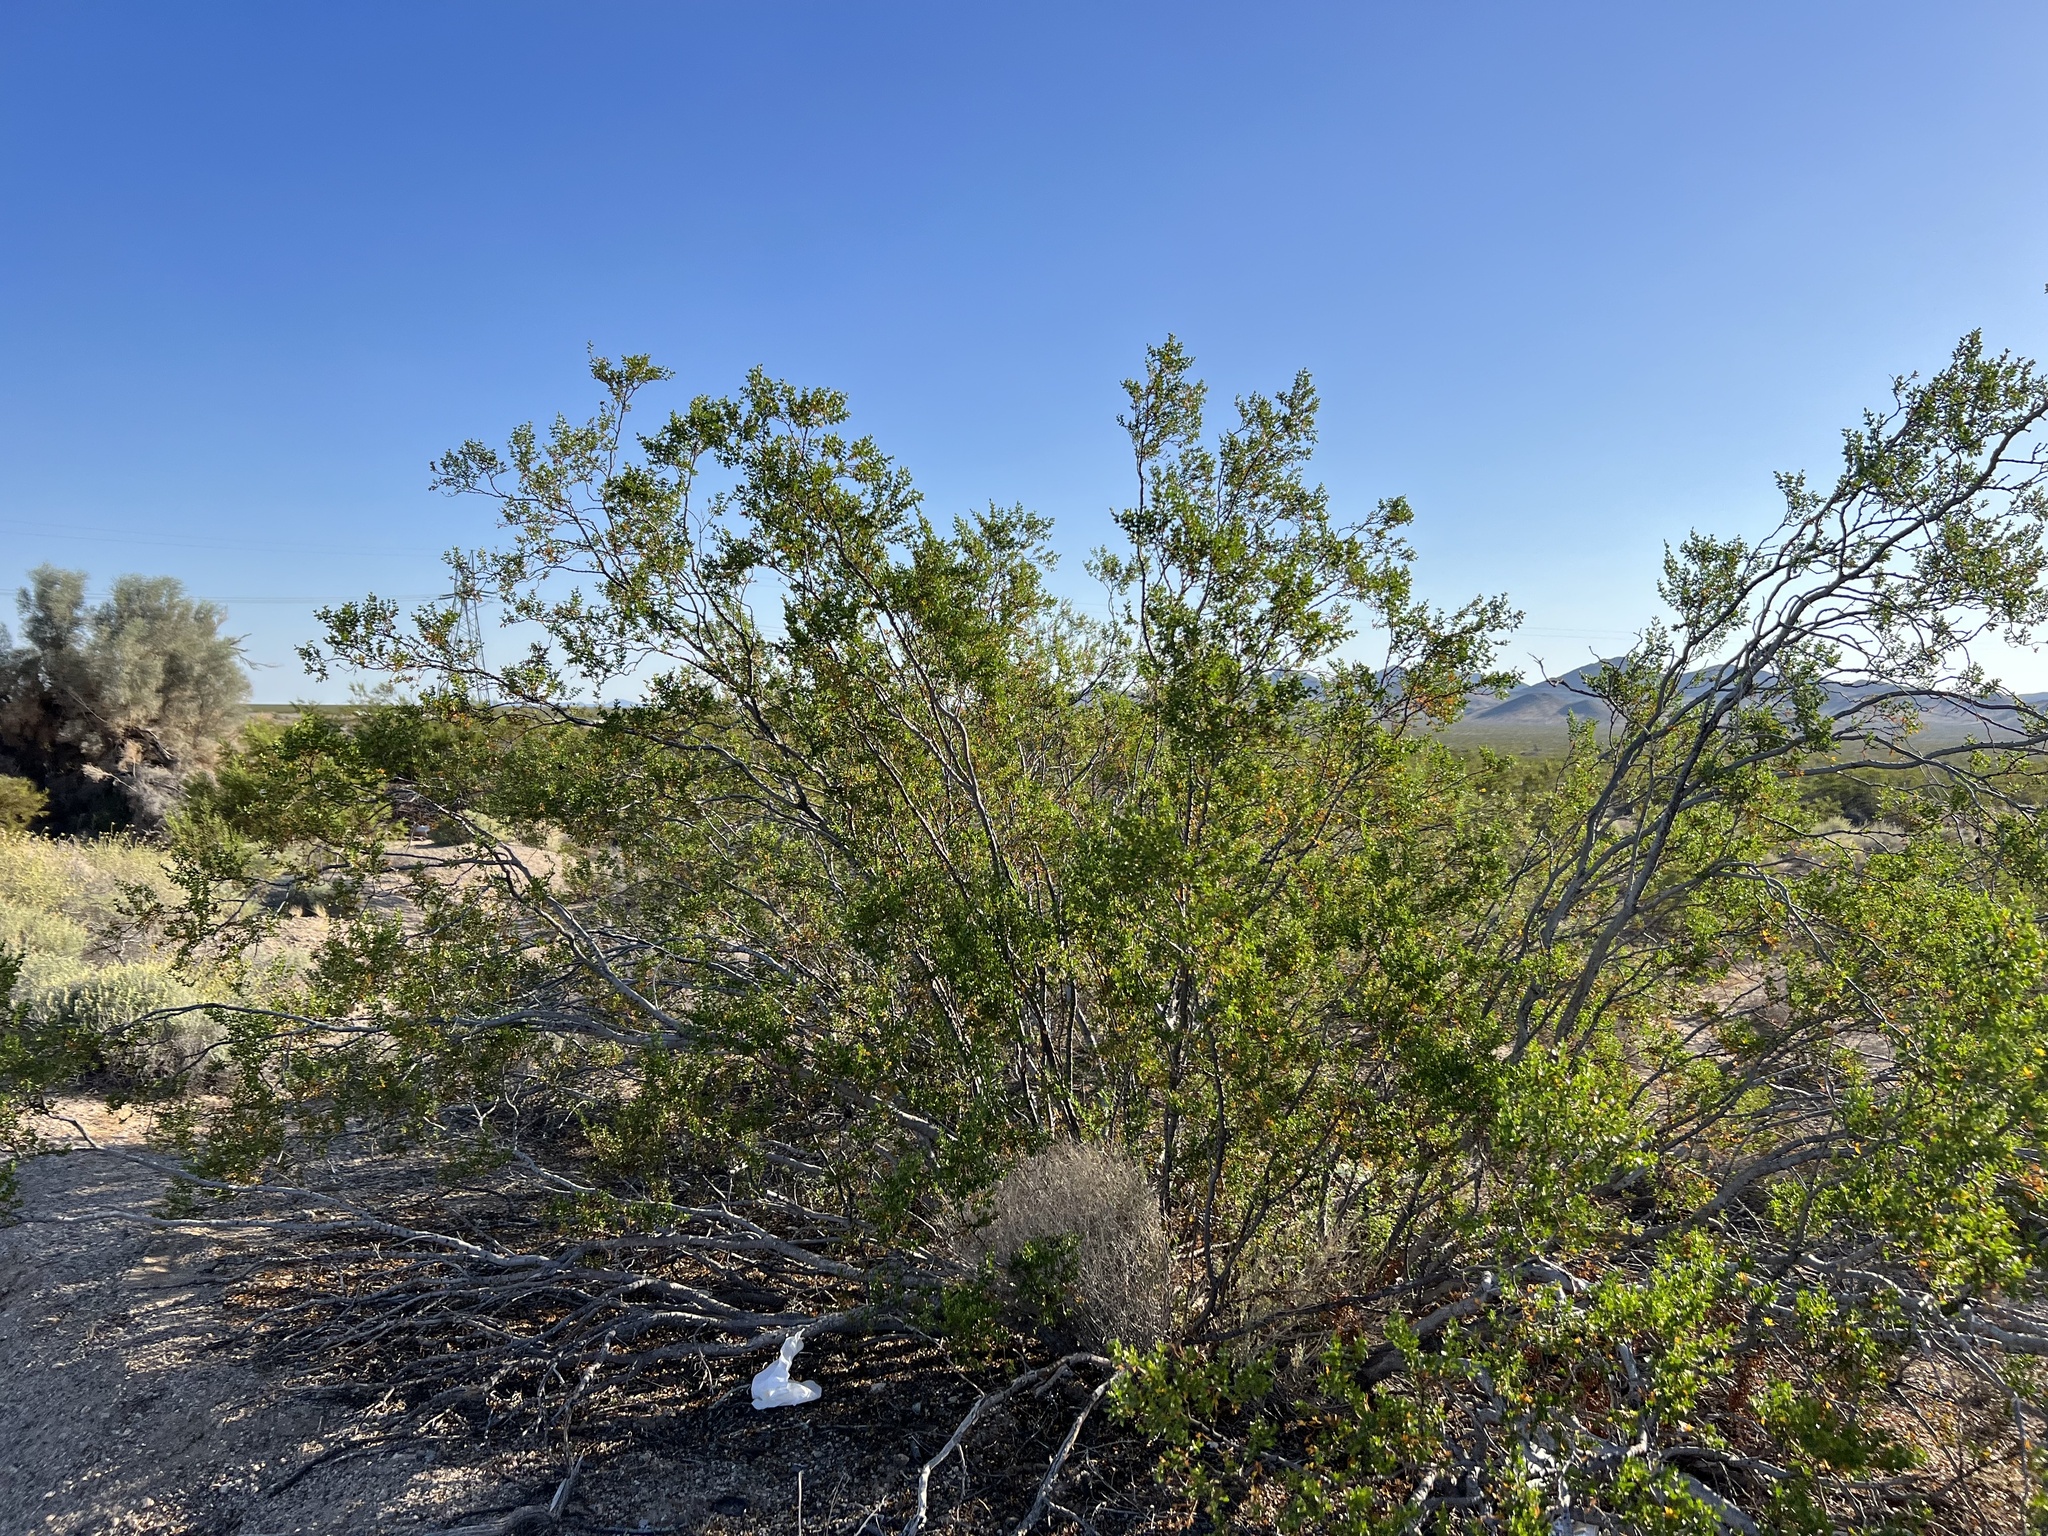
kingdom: Plantae
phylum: Tracheophyta
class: Magnoliopsida
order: Zygophyllales
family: Zygophyllaceae
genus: Larrea
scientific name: Larrea tridentata
